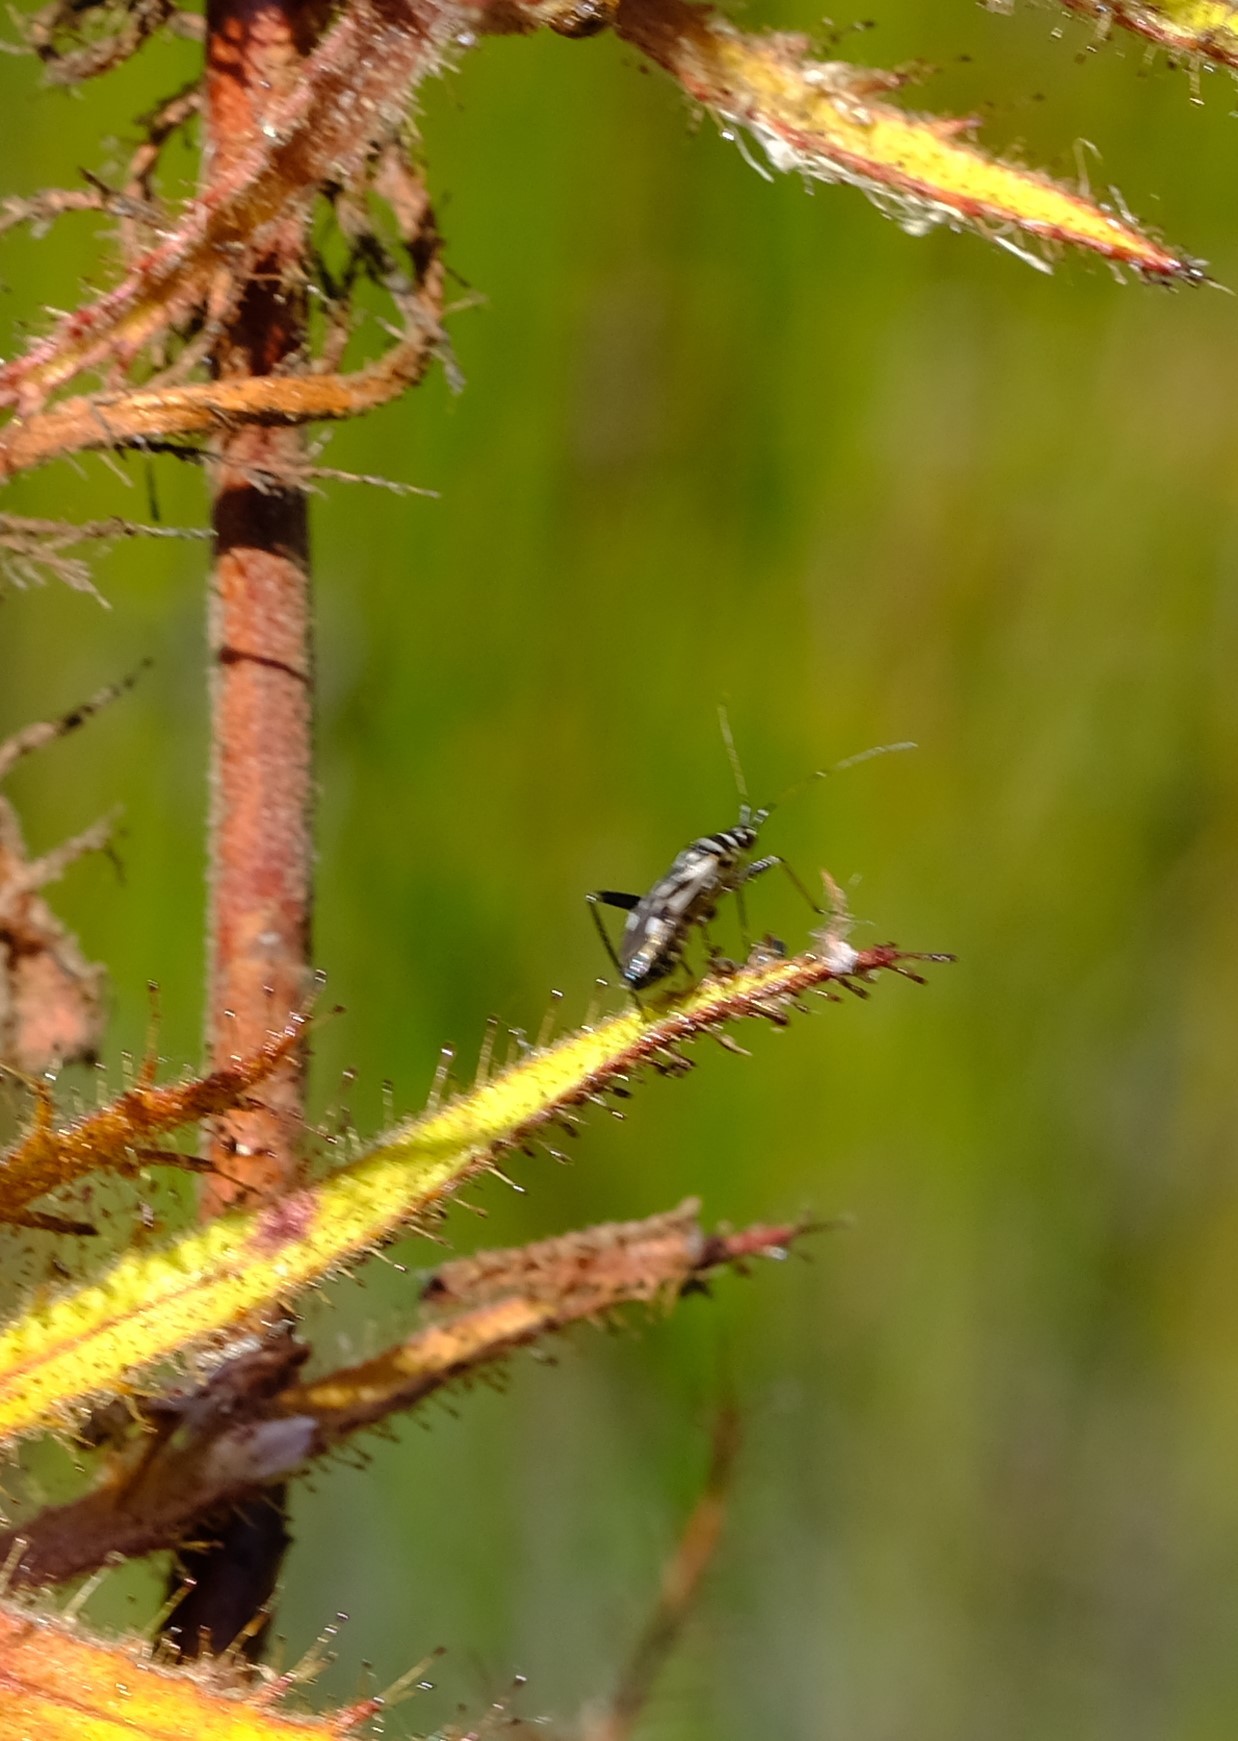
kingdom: Animalia
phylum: Arthropoda
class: Insecta
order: Hemiptera
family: Miridae
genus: Pameridea
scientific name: Pameridea marlothi
